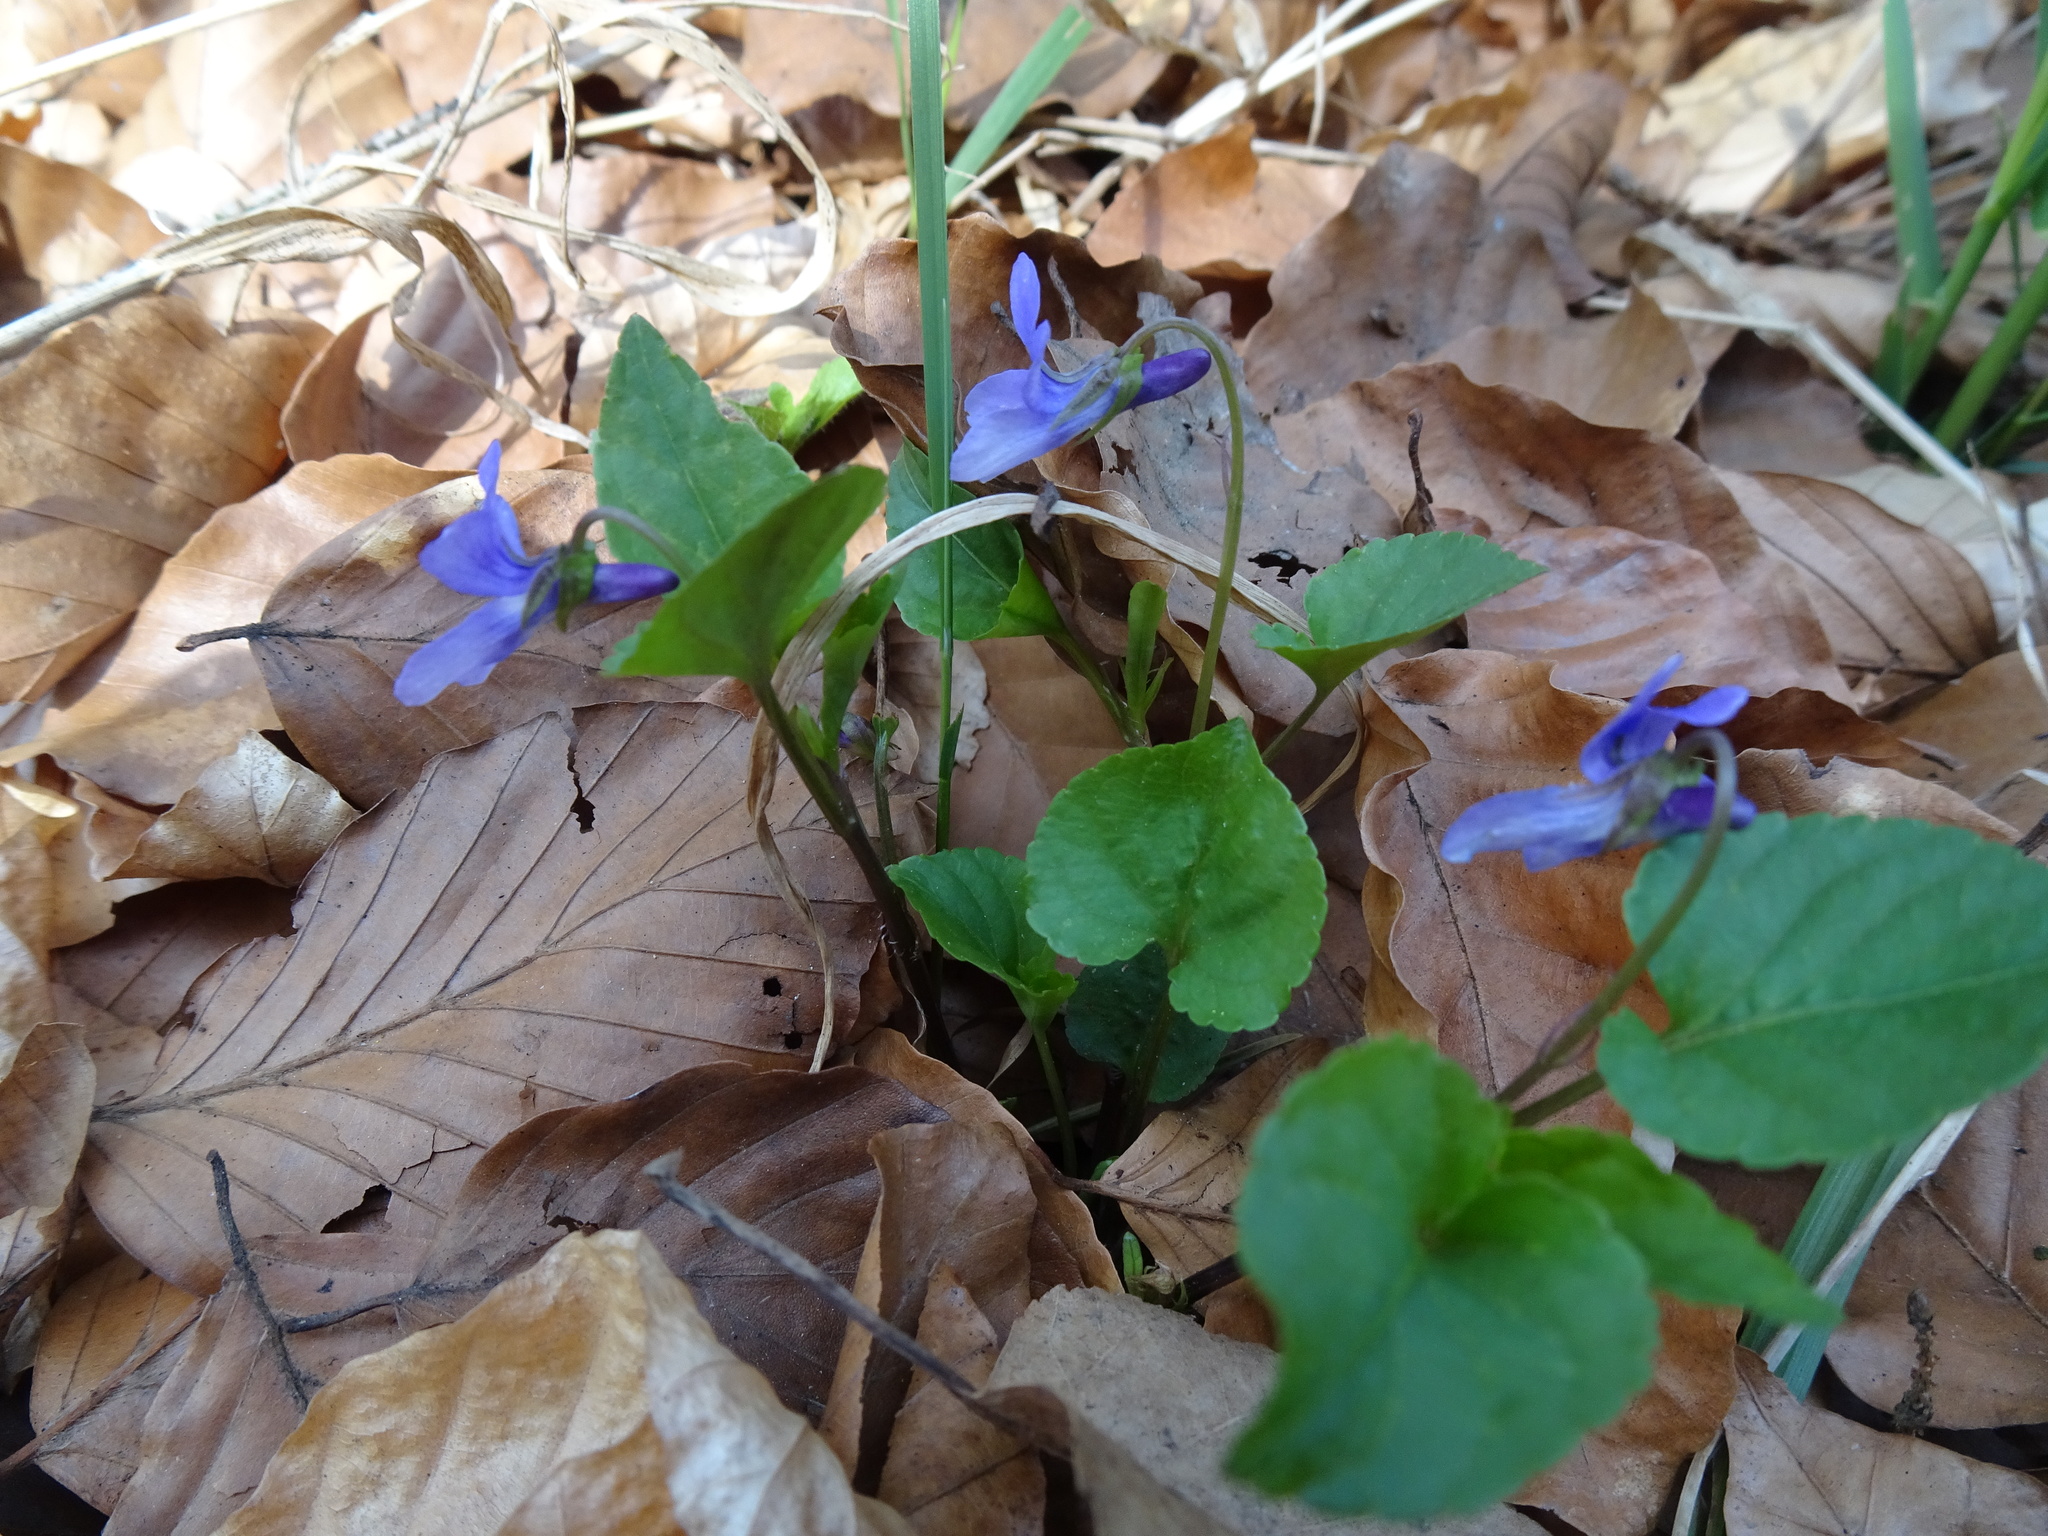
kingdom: Plantae
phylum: Tracheophyta
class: Magnoliopsida
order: Malpighiales
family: Violaceae
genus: Viola
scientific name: Viola reichenbachiana
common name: Early dog-violet
